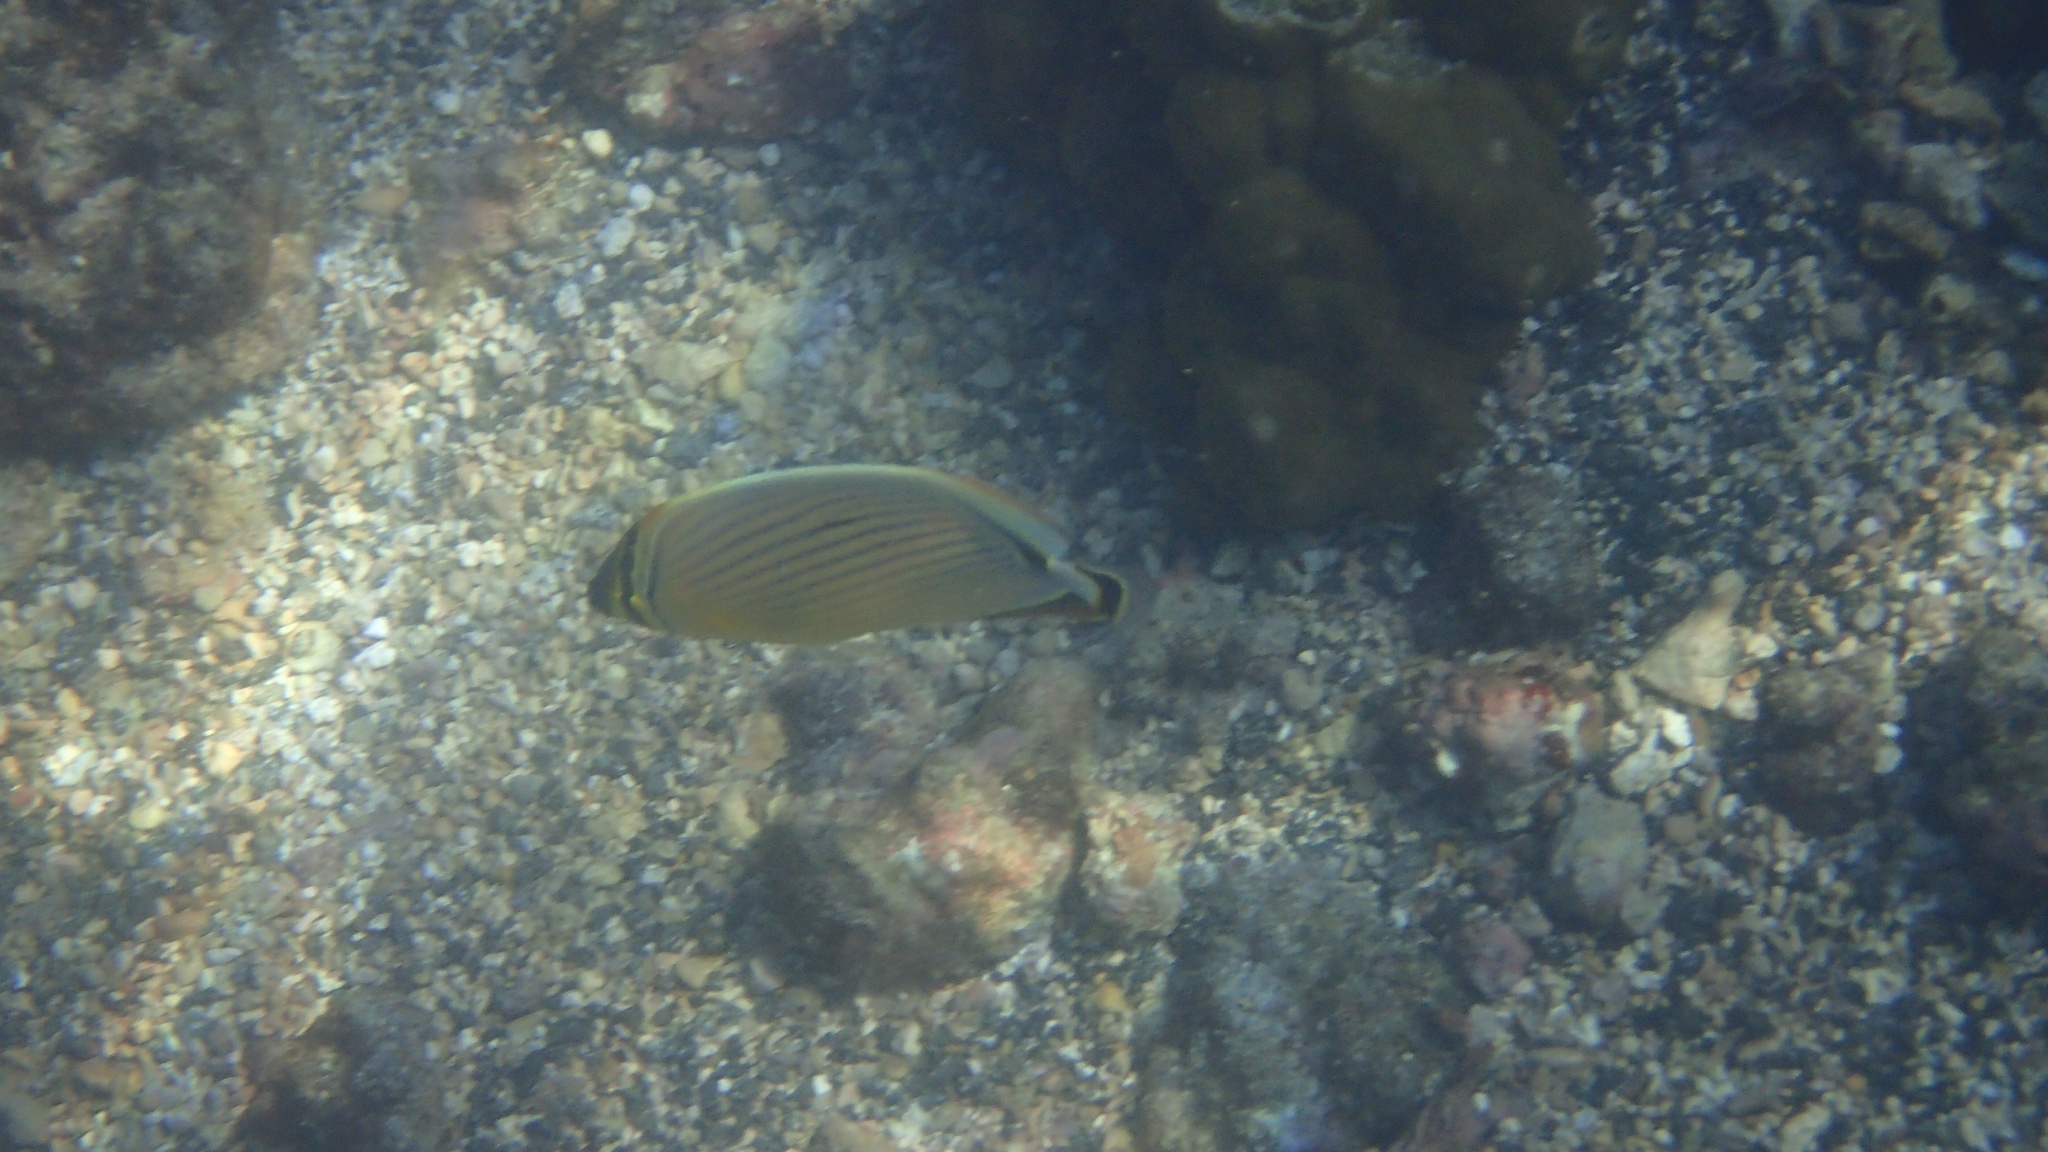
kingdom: Animalia
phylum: Chordata
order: Perciformes
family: Chaetodontidae
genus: Chaetodon
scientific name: Chaetodon lunulatus
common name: Redfin butterflyfish
